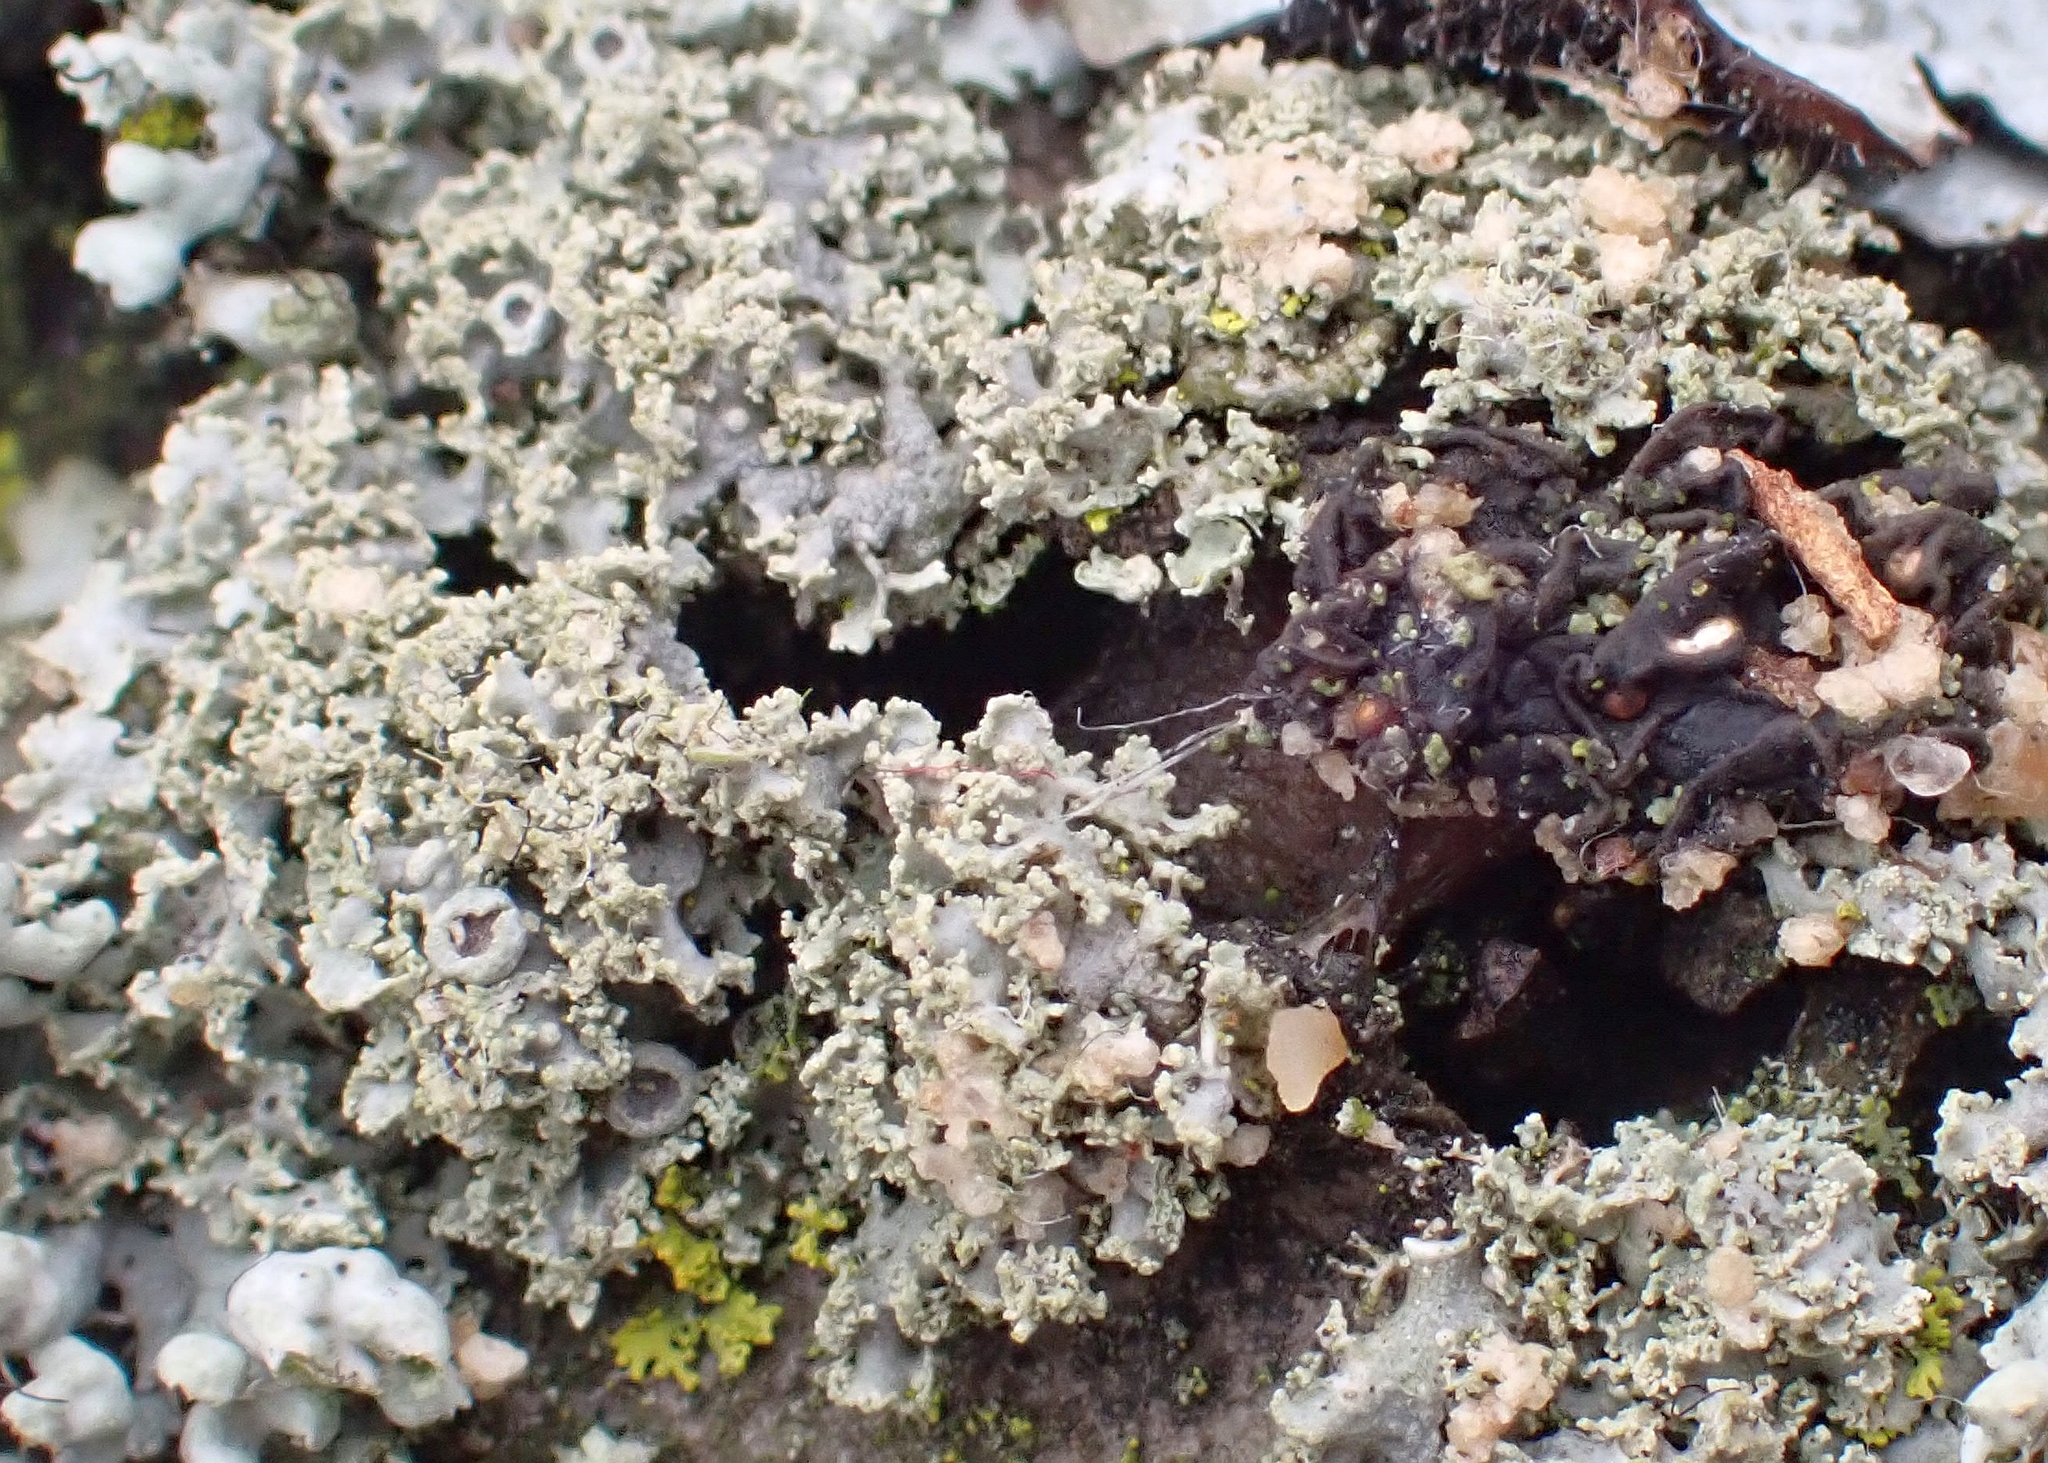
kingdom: Fungi
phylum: Ascomycota
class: Lecanoromycetes
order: Caliciales
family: Physciaceae
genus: Physcia
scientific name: Physcia millegrana
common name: Rosette lichen
